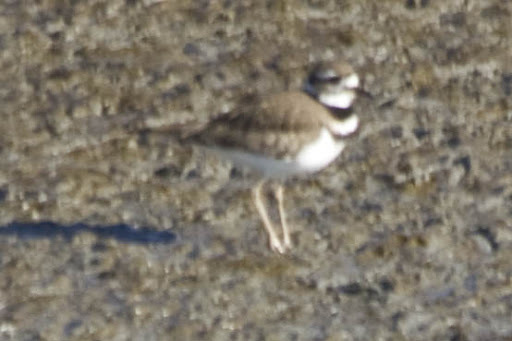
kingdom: Animalia
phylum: Chordata
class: Aves
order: Charadriiformes
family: Charadriidae
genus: Charadrius
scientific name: Charadrius vociferus
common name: Killdeer
